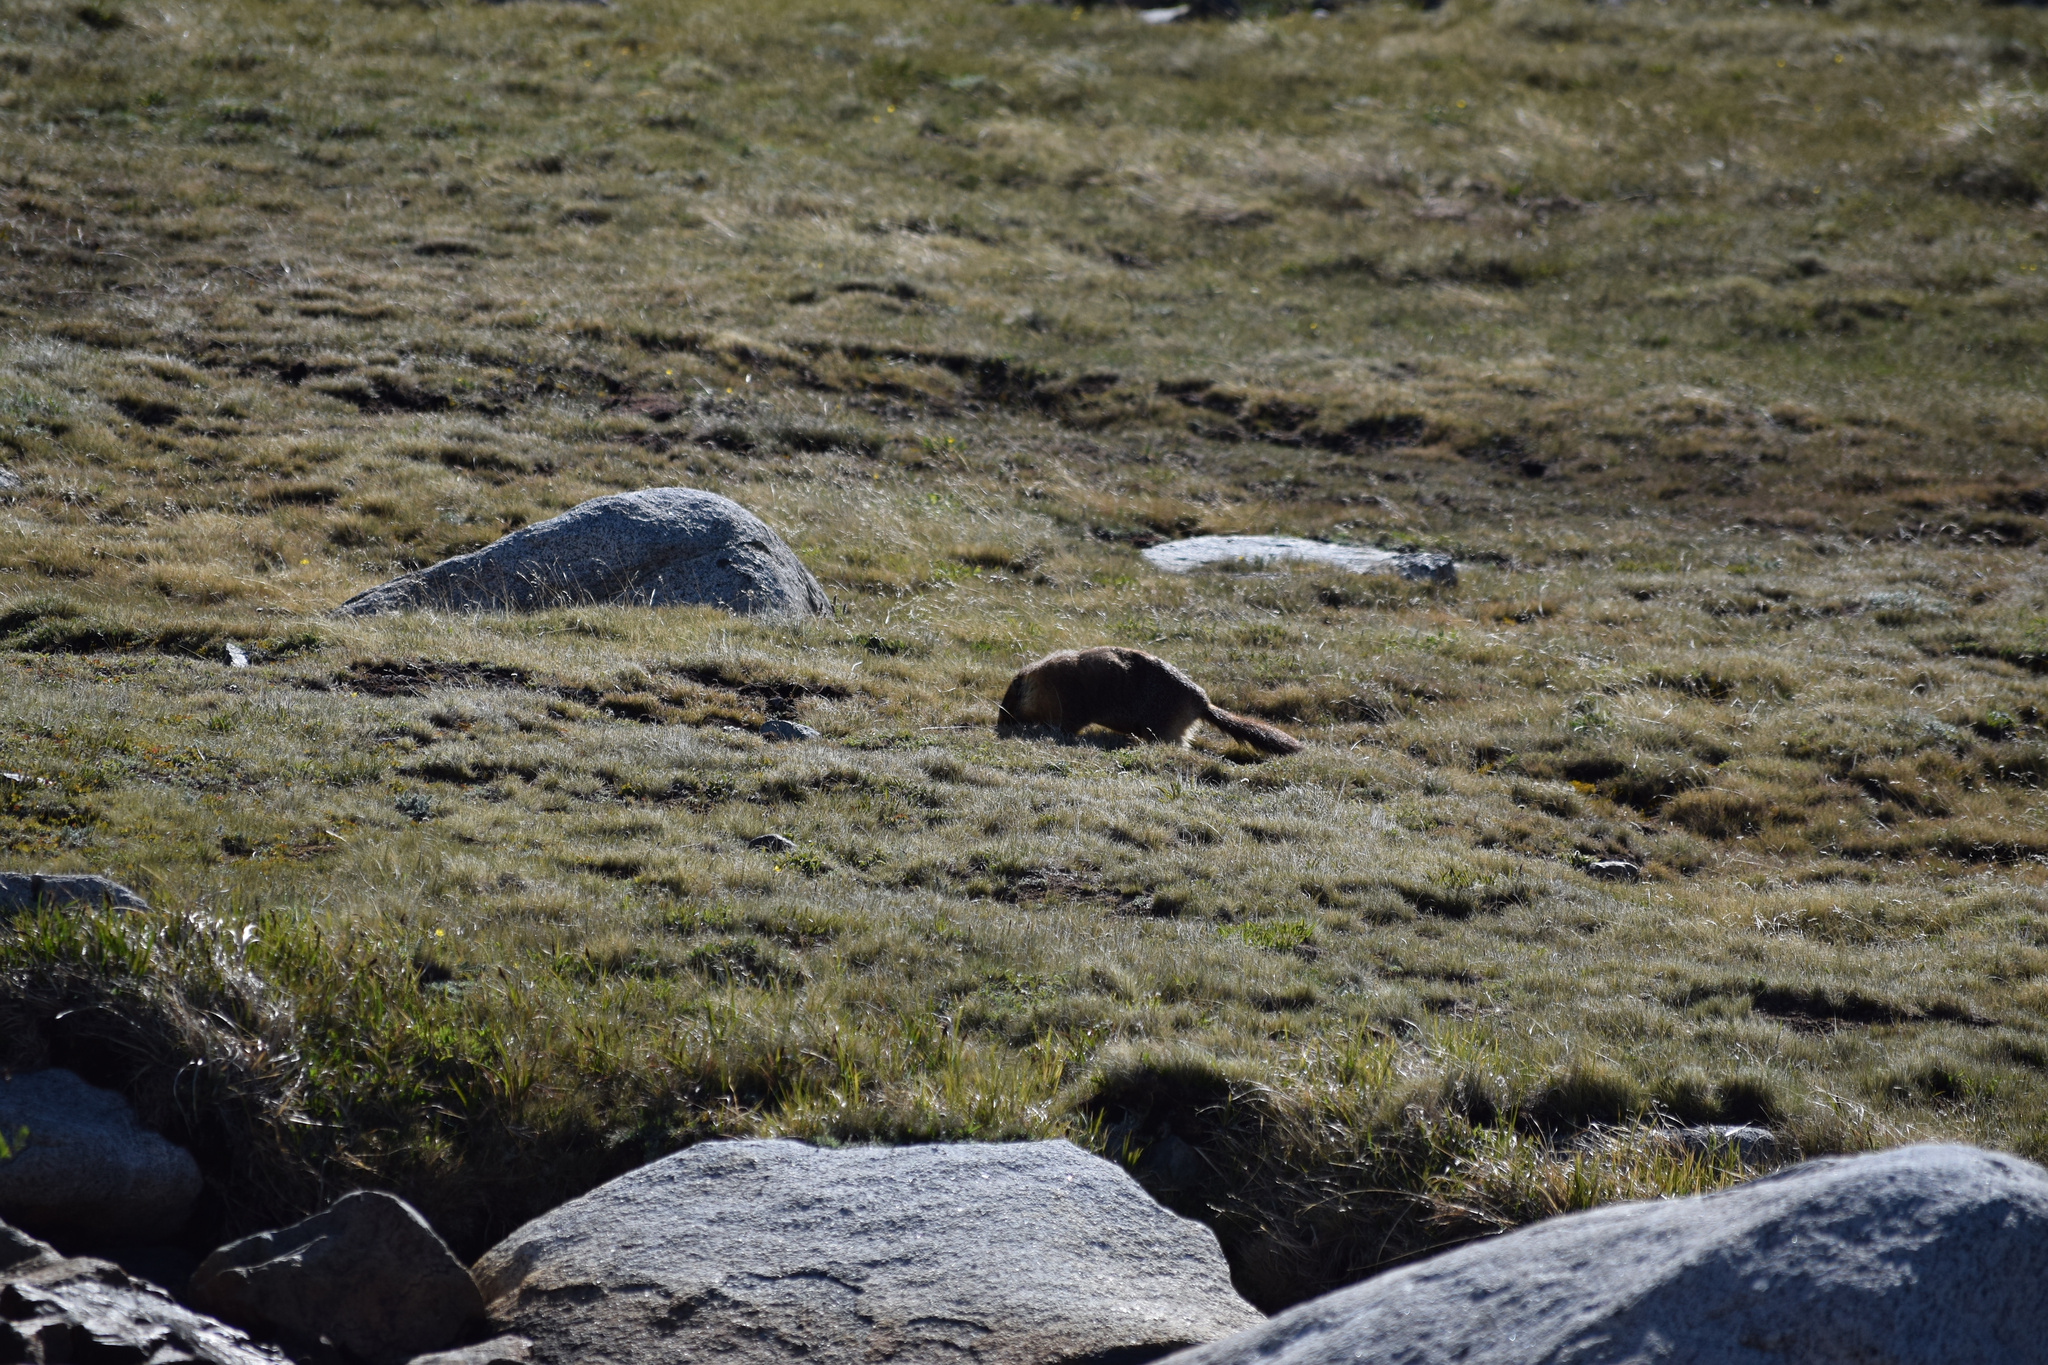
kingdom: Animalia
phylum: Chordata
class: Mammalia
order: Rodentia
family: Sciuridae
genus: Marmota
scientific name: Marmota flaviventris
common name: Yellow-bellied marmot
